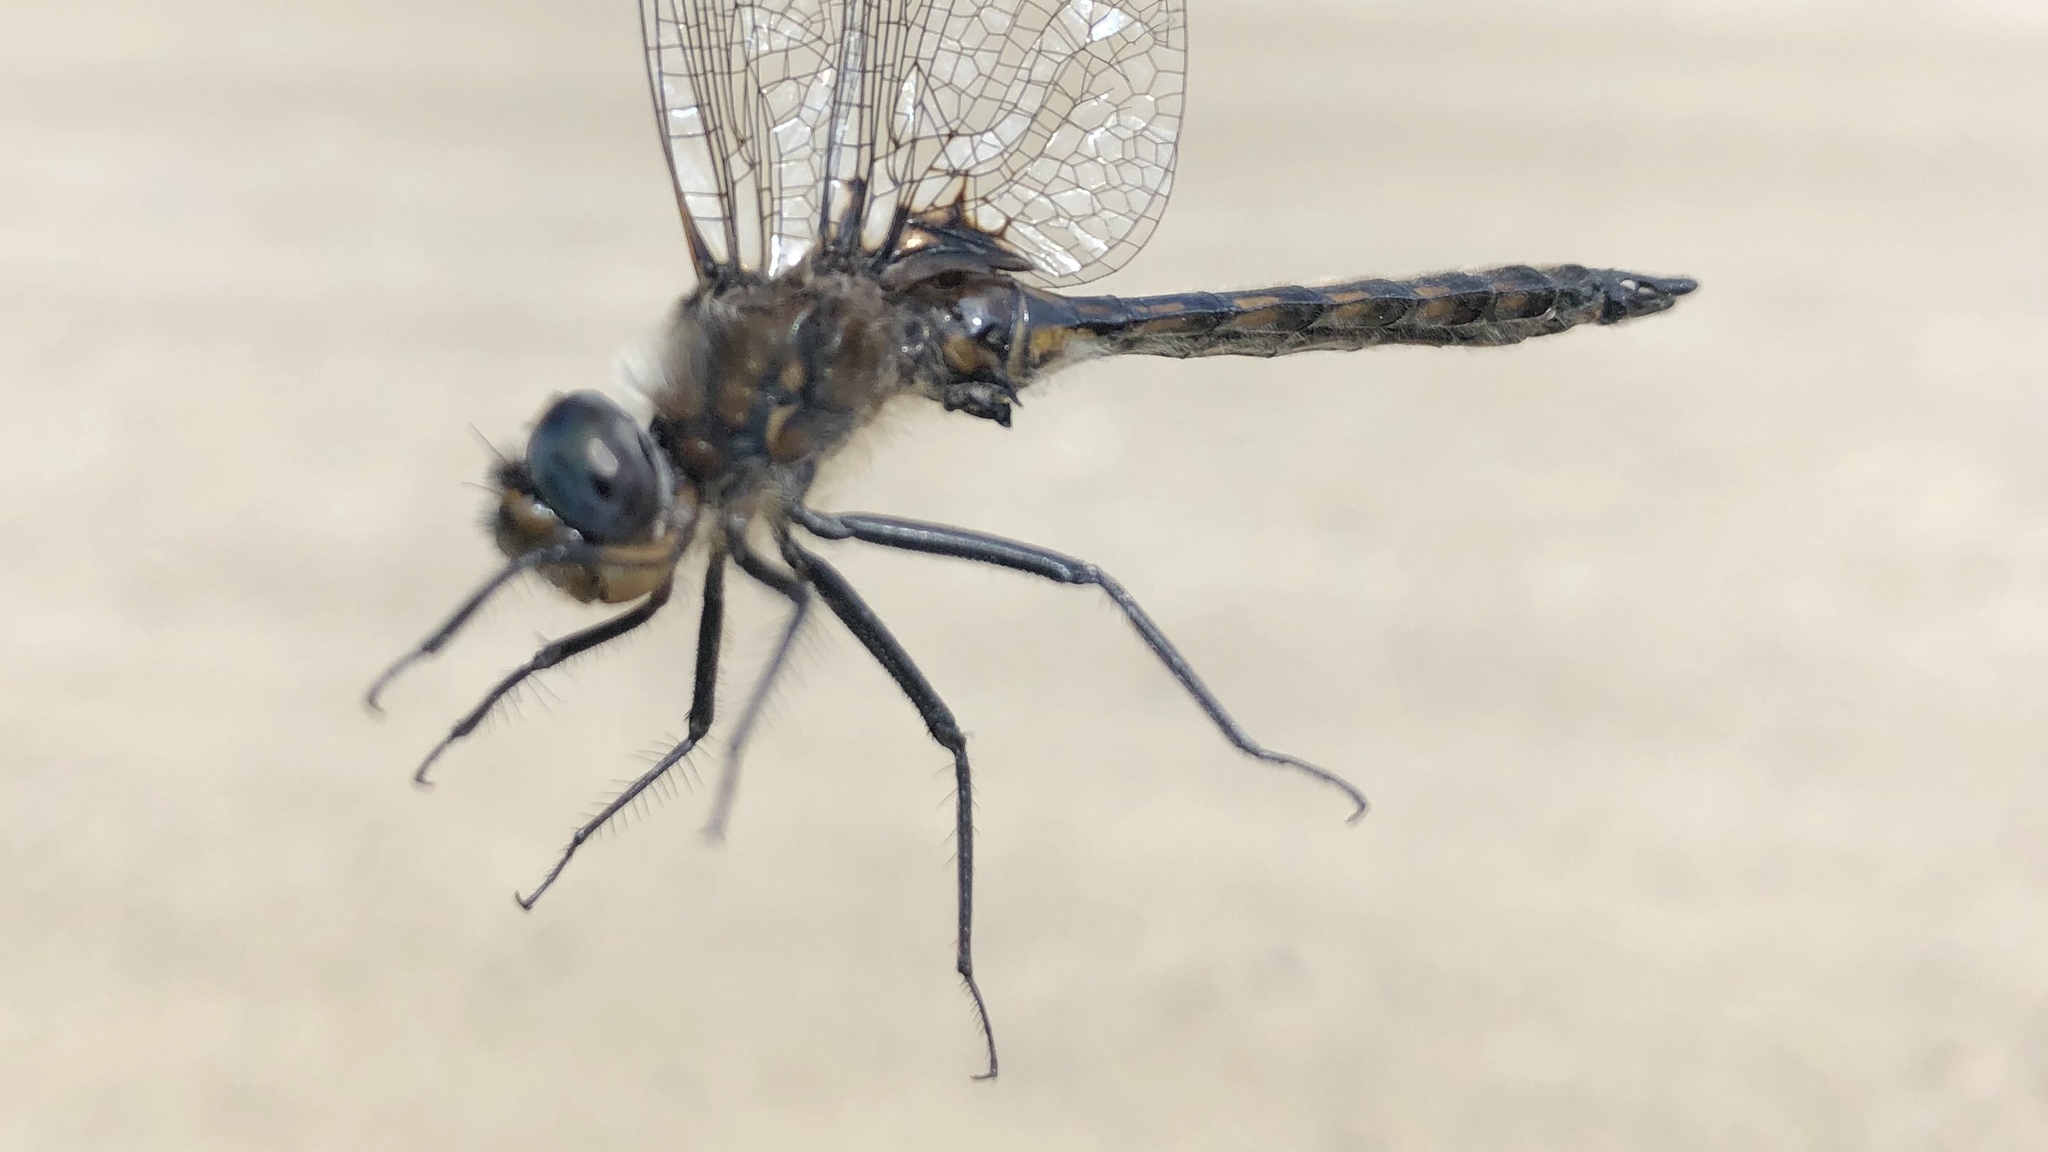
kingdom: Animalia
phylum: Arthropoda
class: Insecta
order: Odonata
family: Corduliidae
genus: Epitheca
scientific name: Epitheca spinigera
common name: Spiny baskettail
